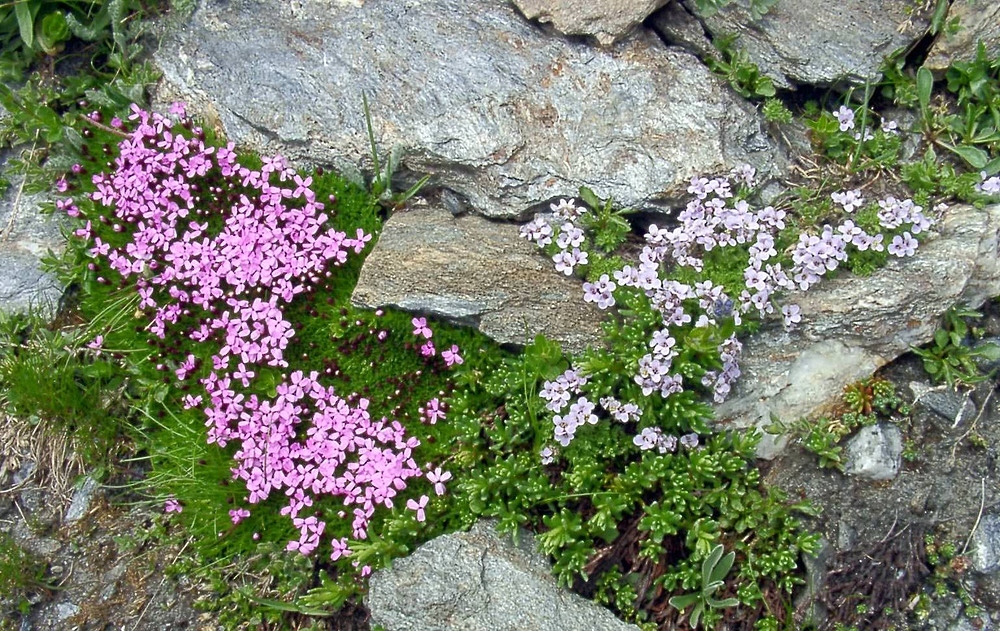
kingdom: Plantae
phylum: Tracheophyta
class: Magnoliopsida
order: Brassicales
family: Brassicaceae
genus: Petrocallis
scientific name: Petrocallis pyrenaica
